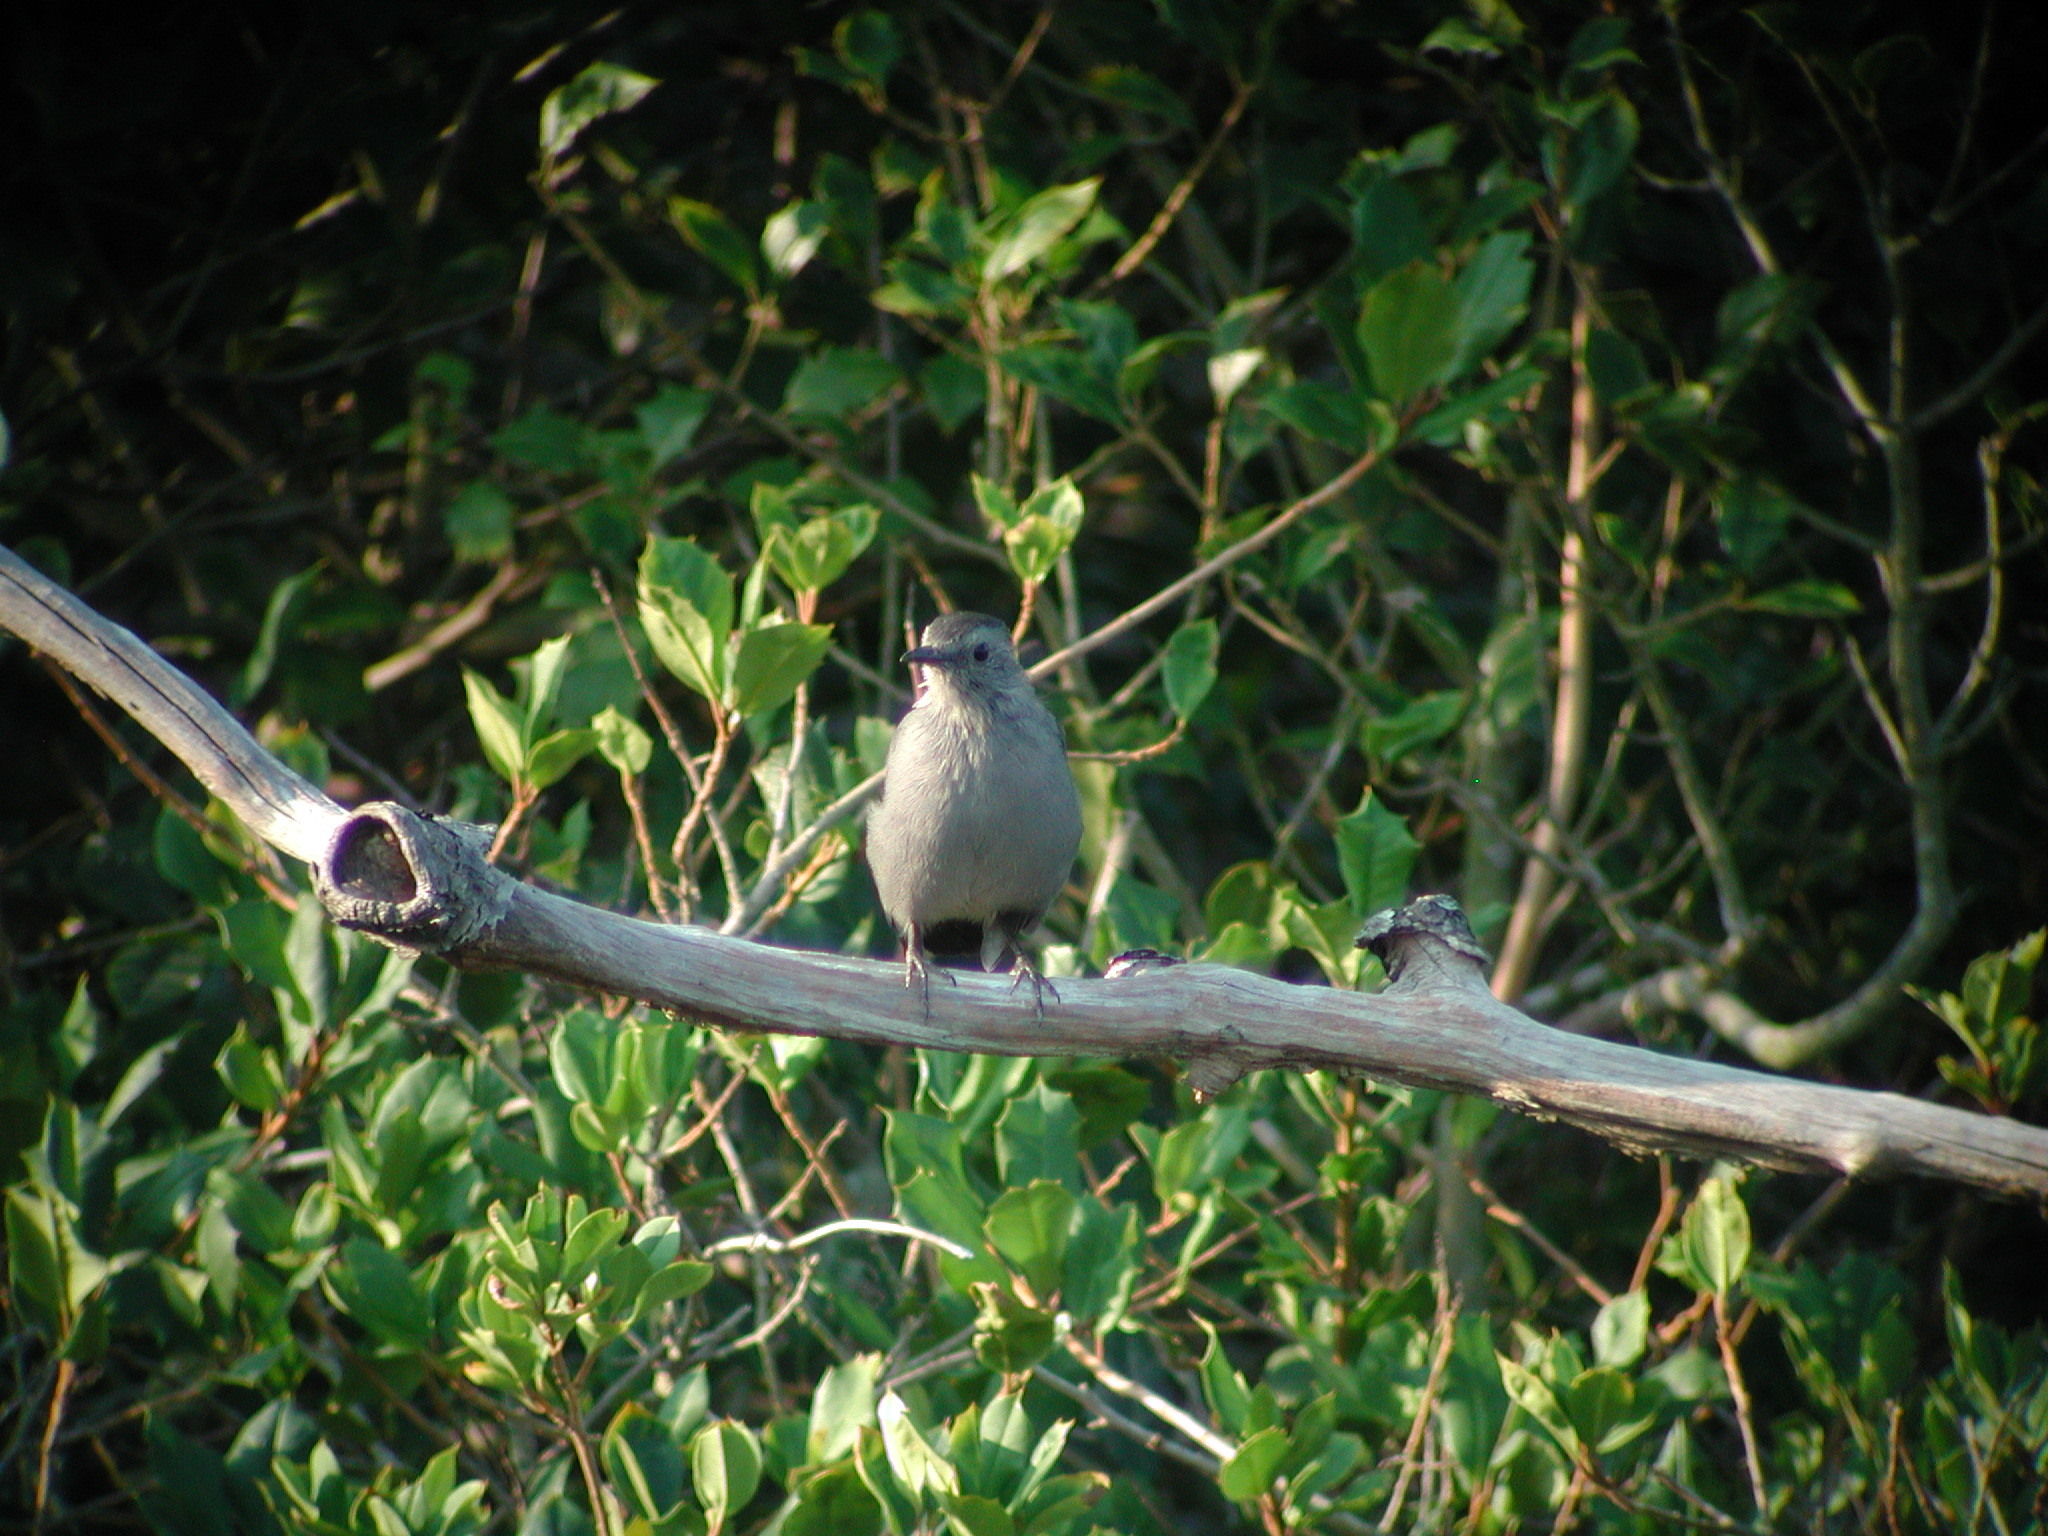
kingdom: Animalia
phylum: Chordata
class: Aves
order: Passeriformes
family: Mimidae
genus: Dumetella
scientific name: Dumetella carolinensis
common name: Gray catbird
